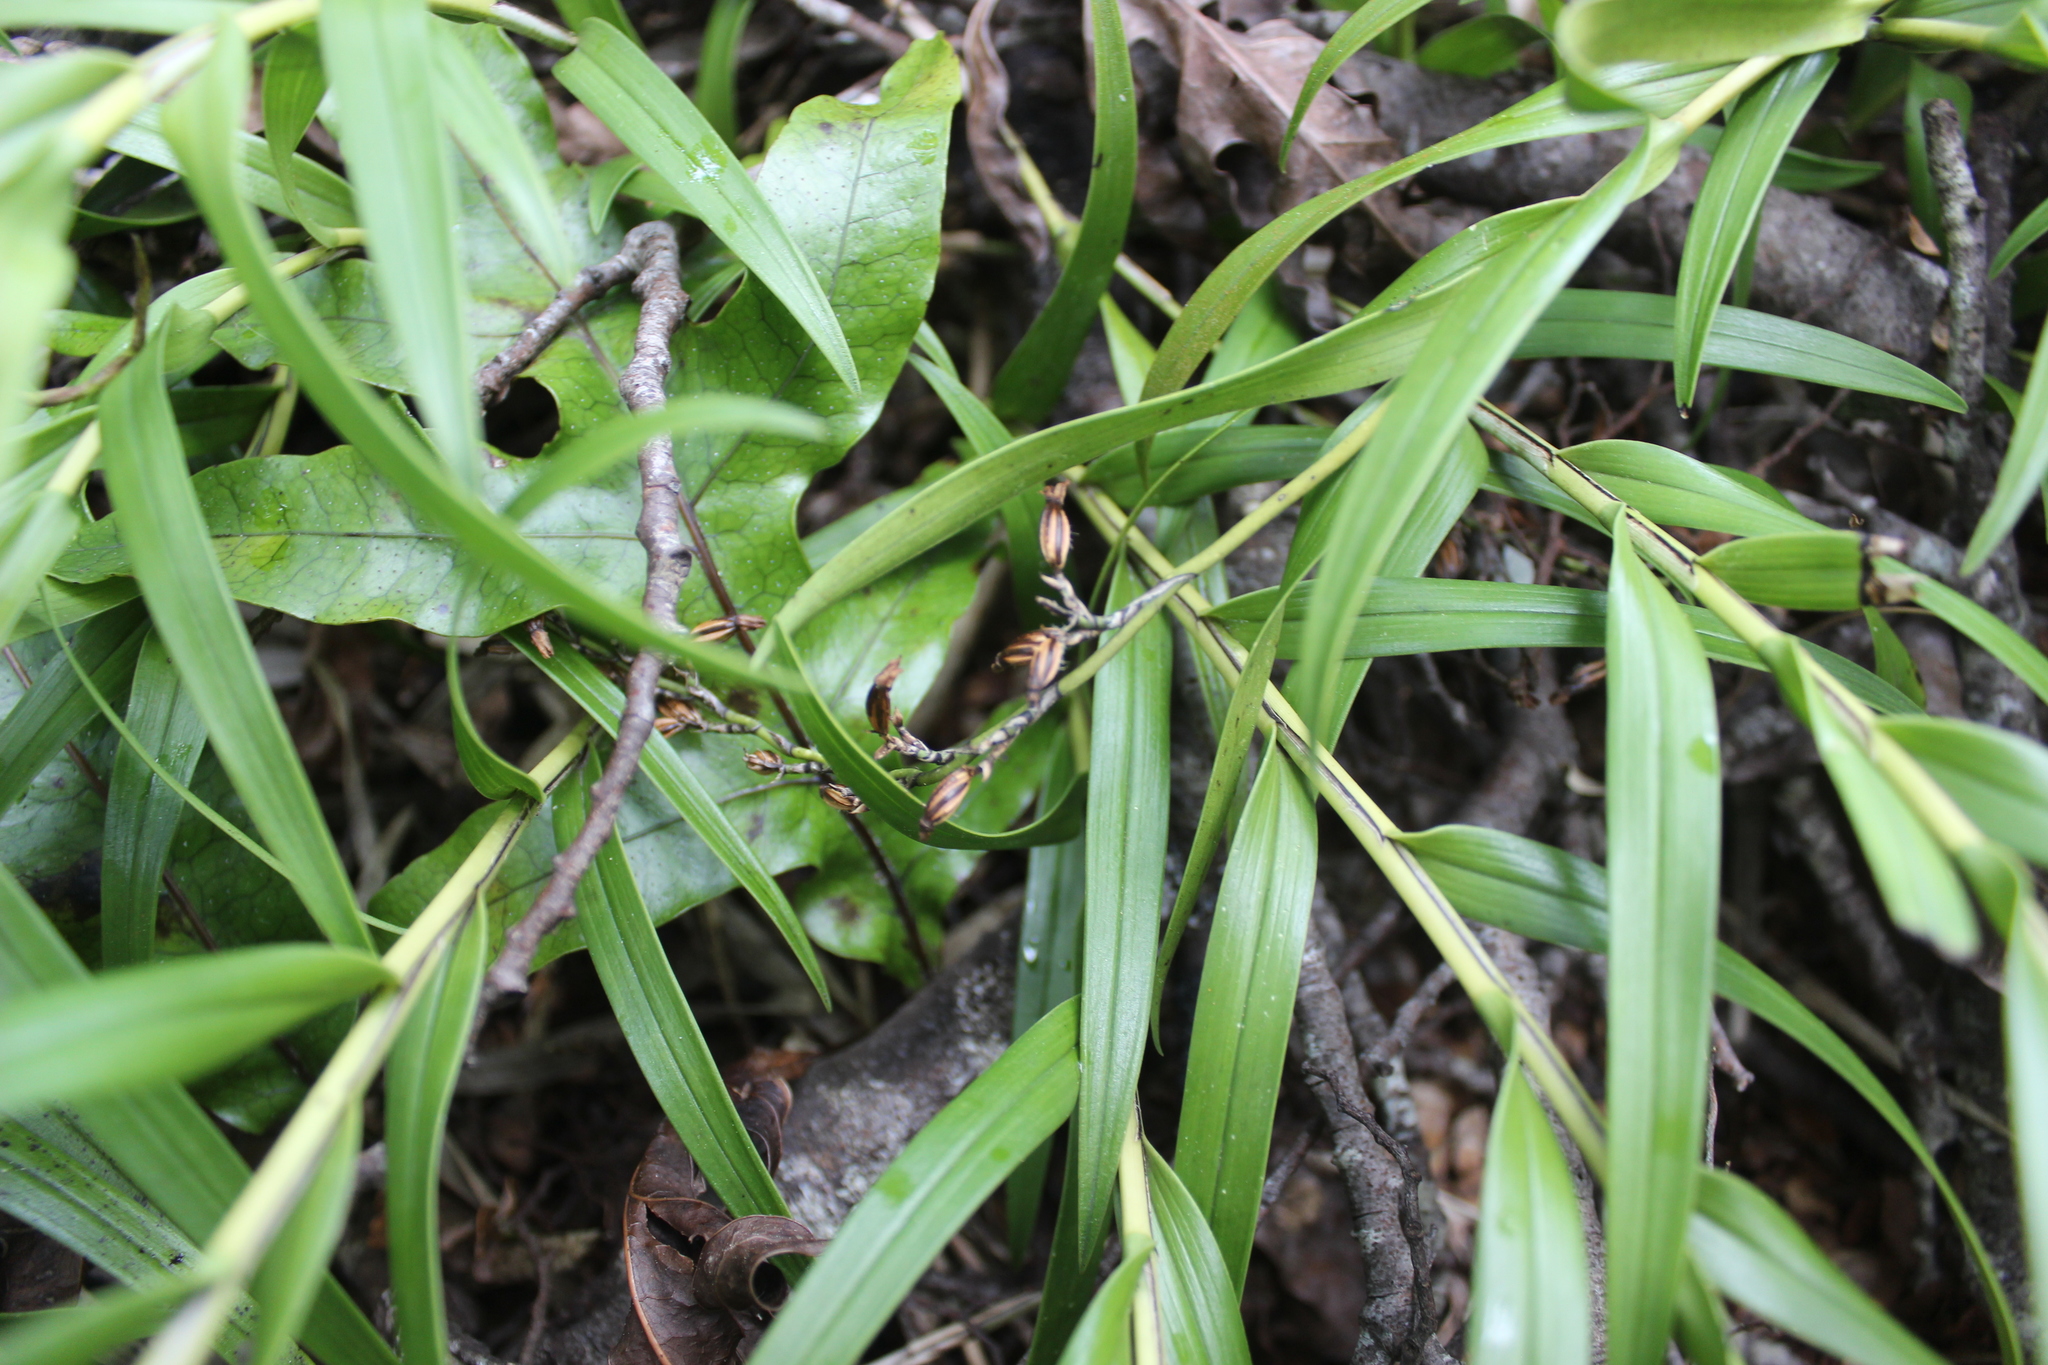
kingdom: Plantae
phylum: Tracheophyta
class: Liliopsida
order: Asparagales
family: Orchidaceae
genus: Earina
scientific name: Earina autumnalis
